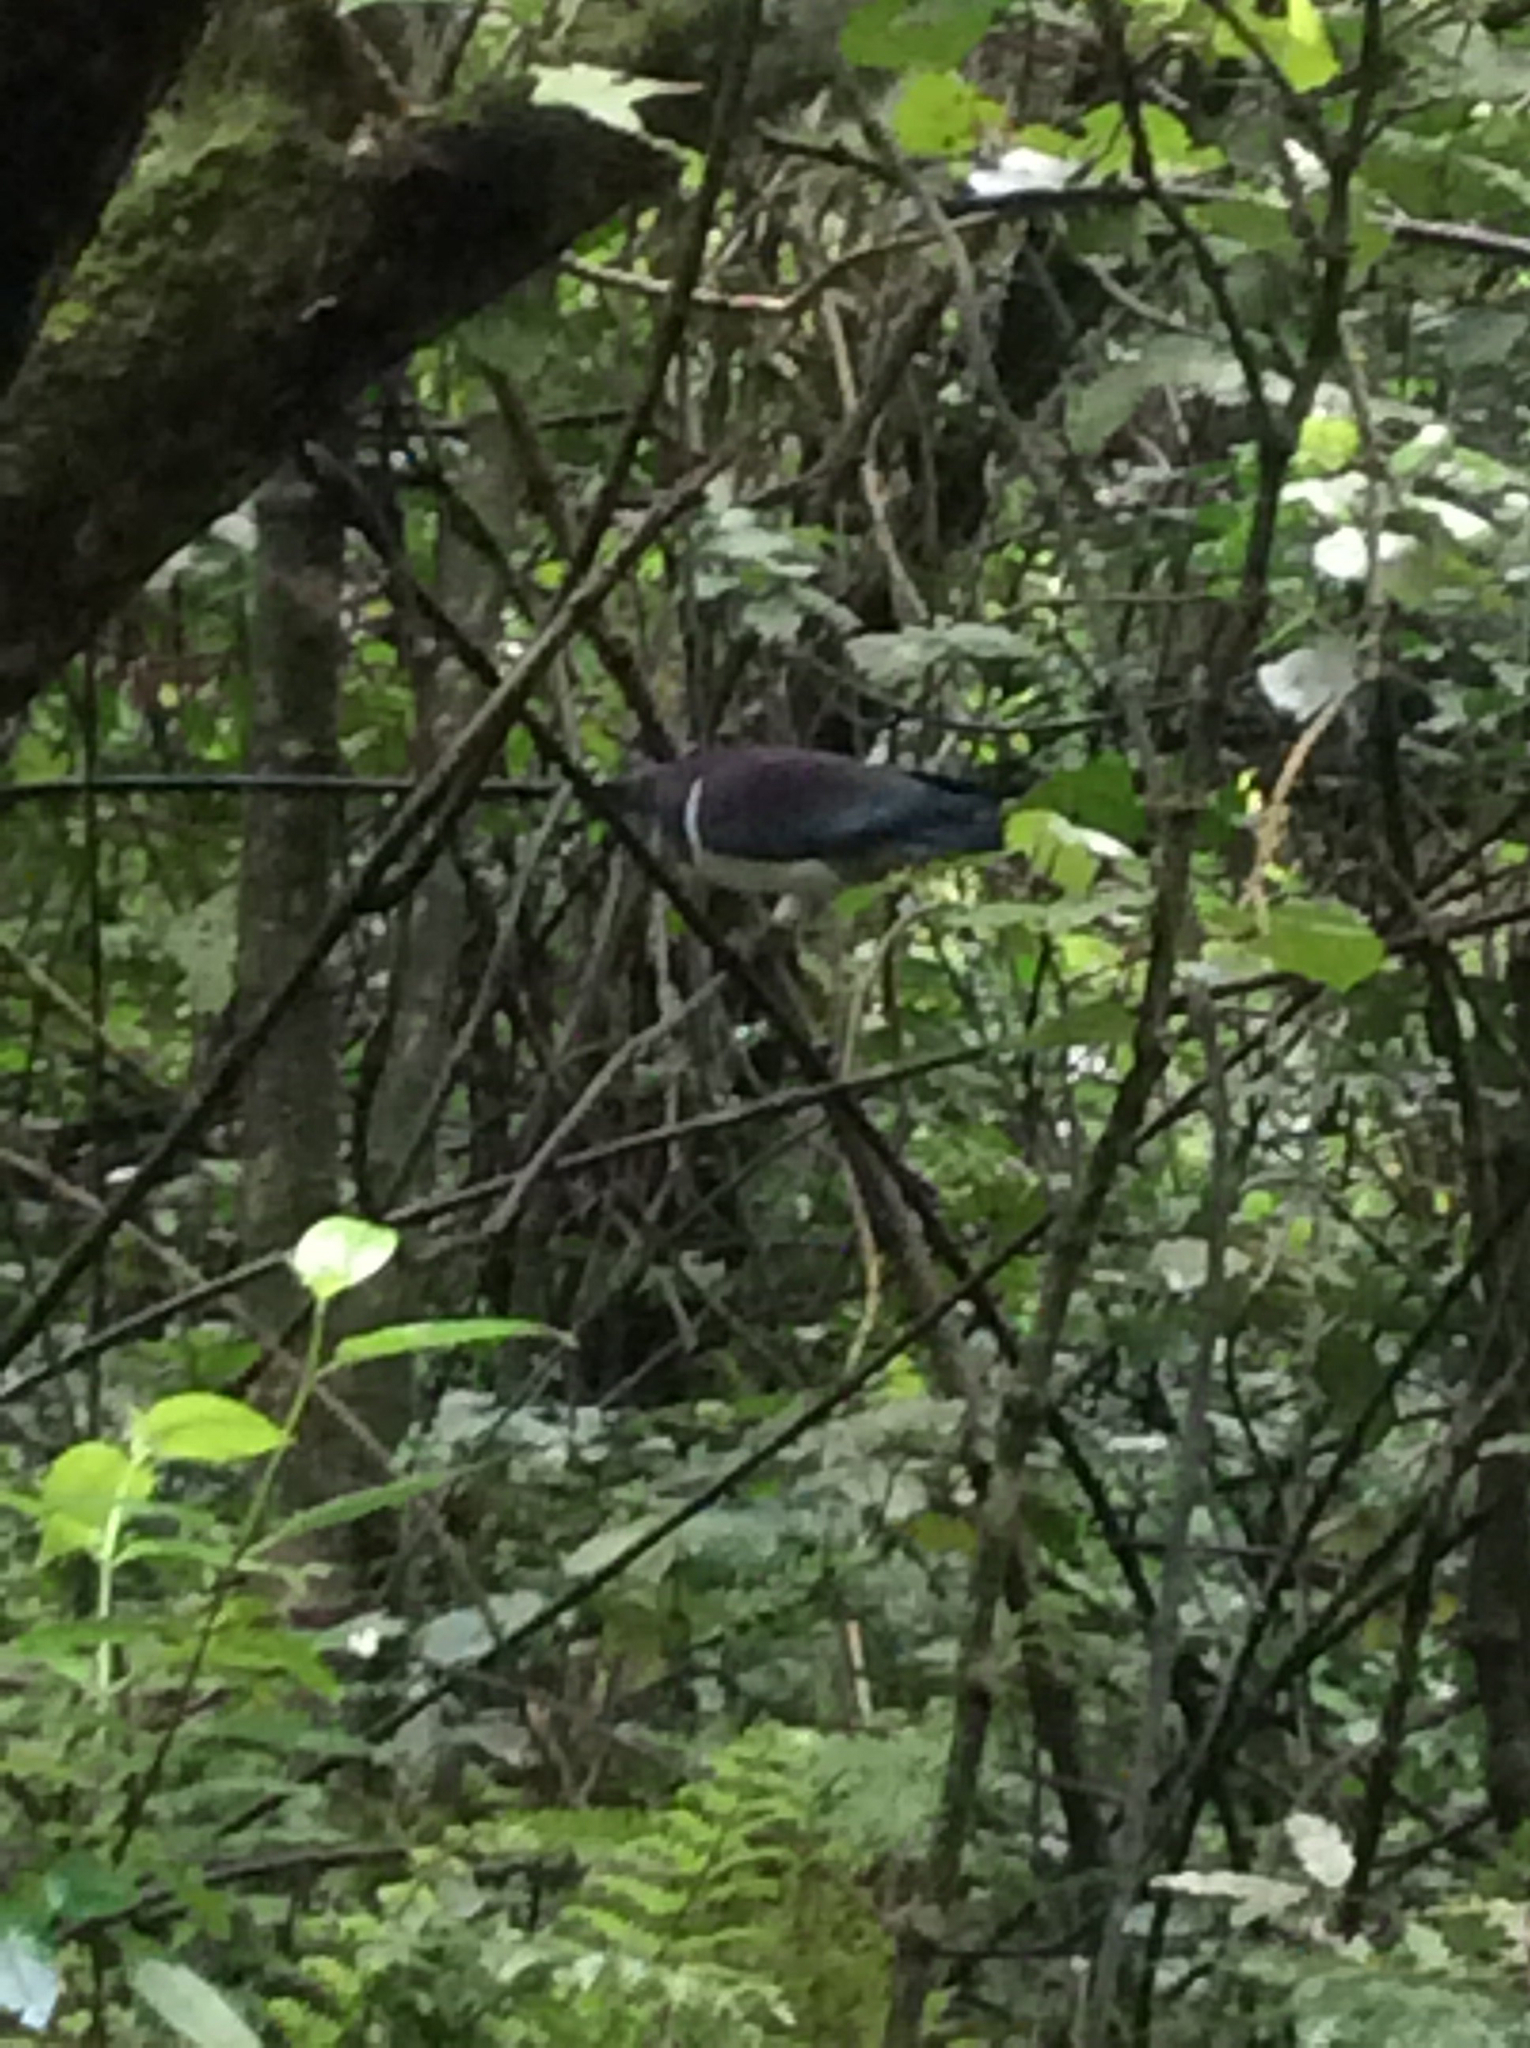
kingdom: Animalia
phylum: Chordata
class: Aves
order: Columbiformes
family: Columbidae
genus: Hemiphaga
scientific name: Hemiphaga novaeseelandiae
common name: New zealand pigeon
